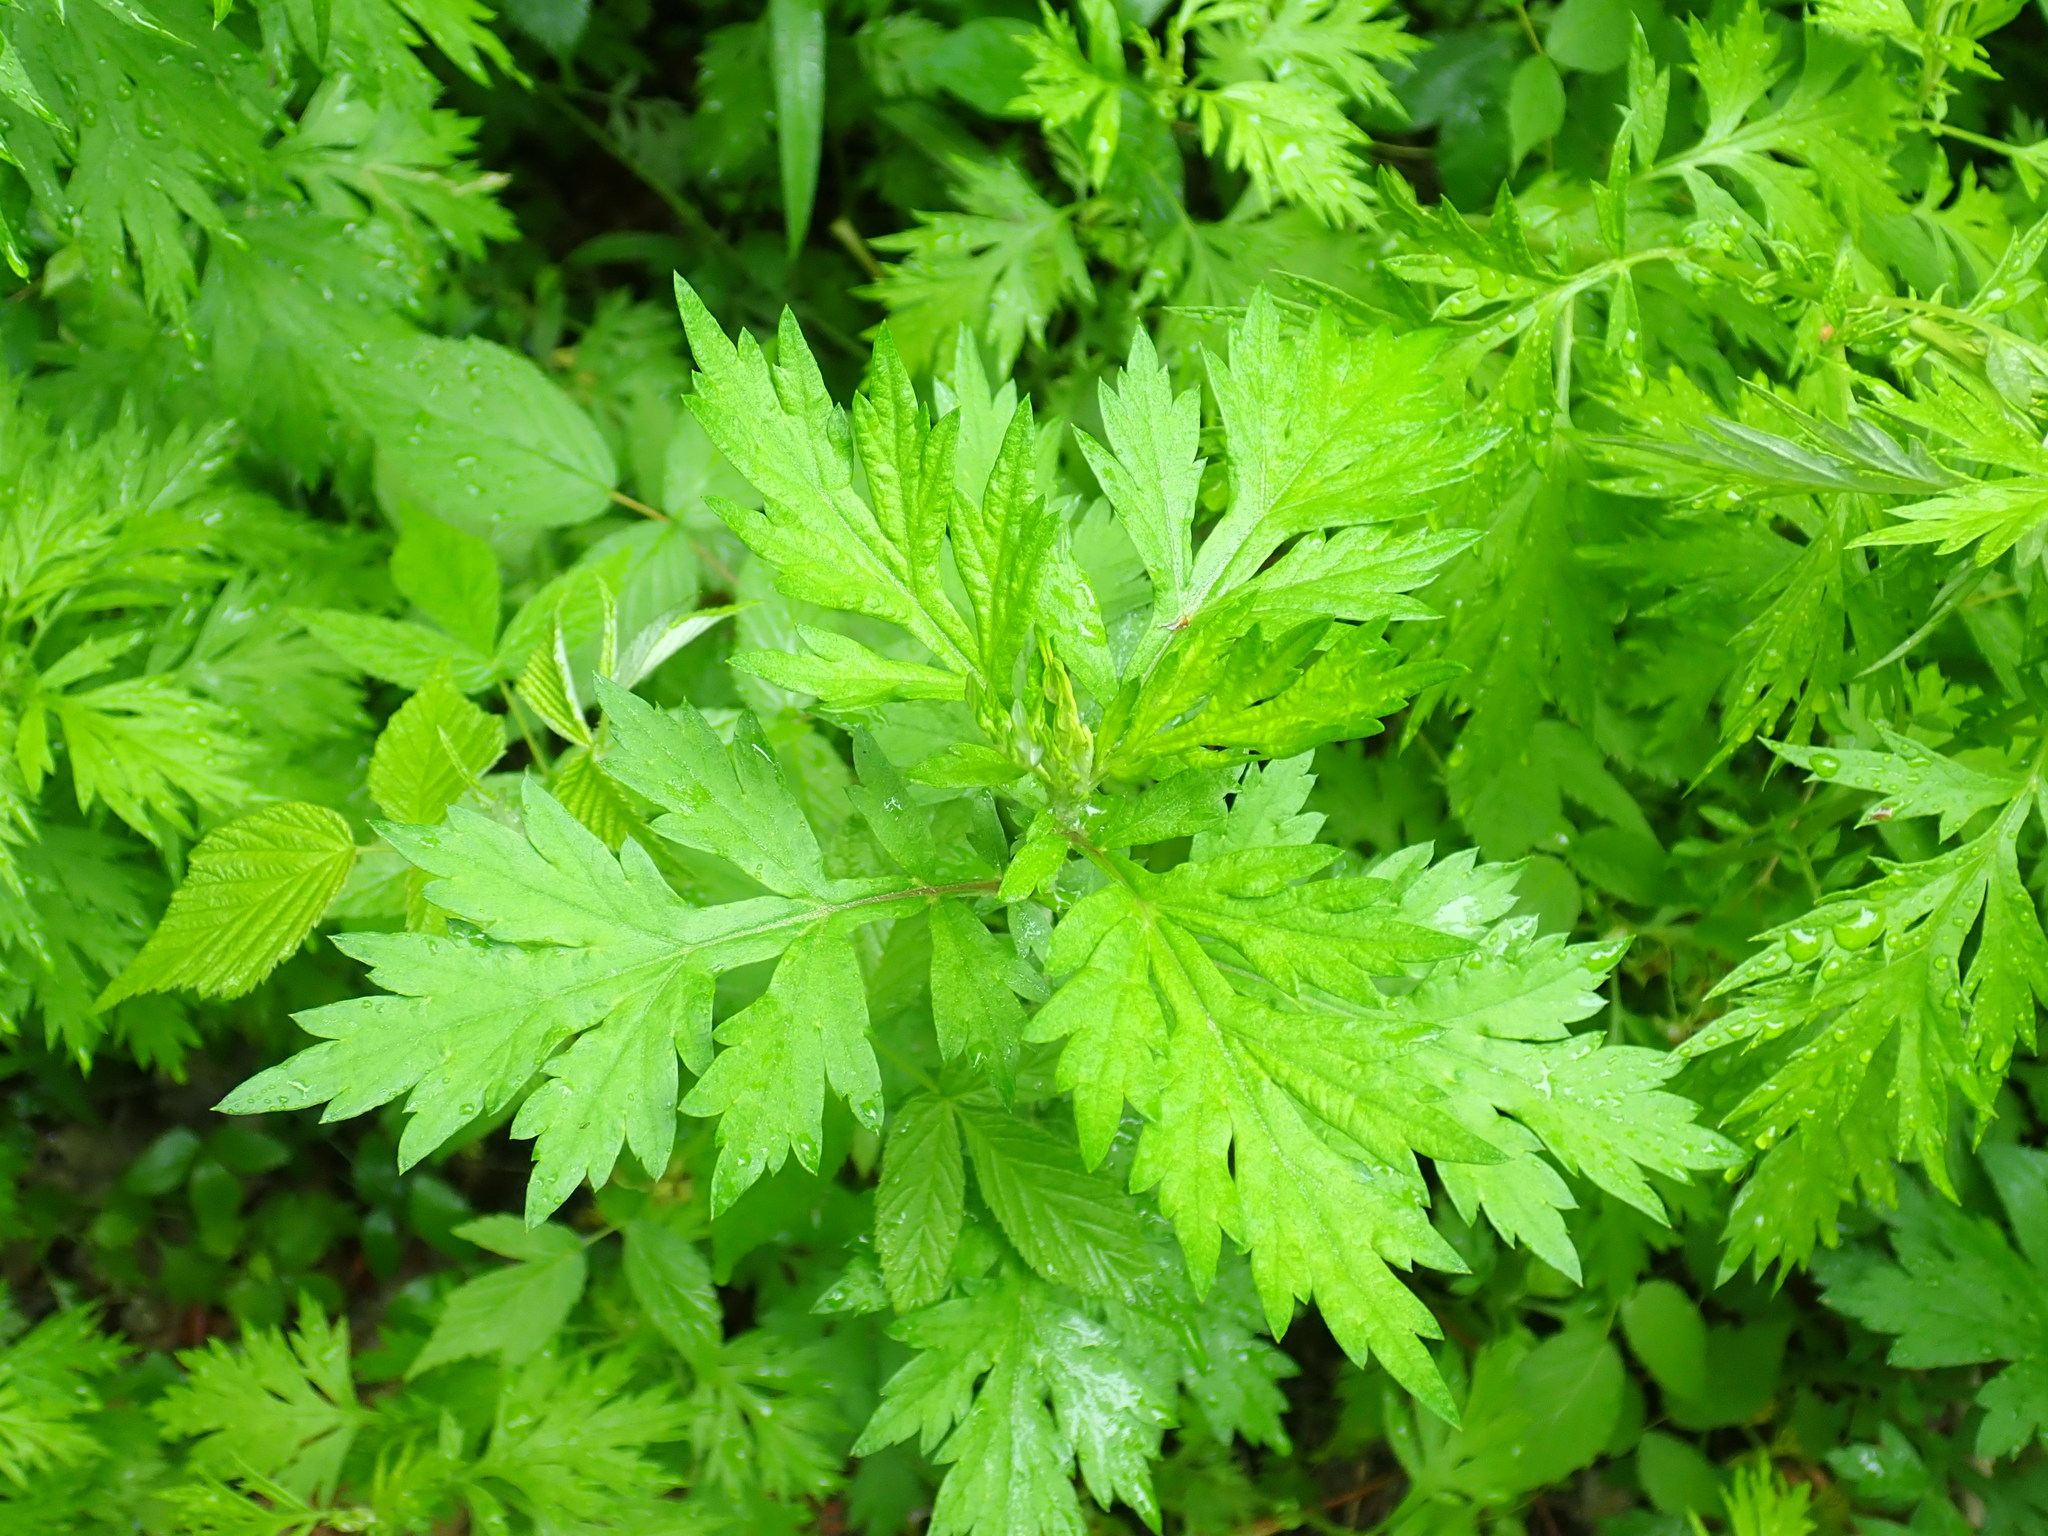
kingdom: Plantae
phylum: Tracheophyta
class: Magnoliopsida
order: Asterales
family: Asteraceae
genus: Artemisia
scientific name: Artemisia vulgaris
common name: Mugwort
